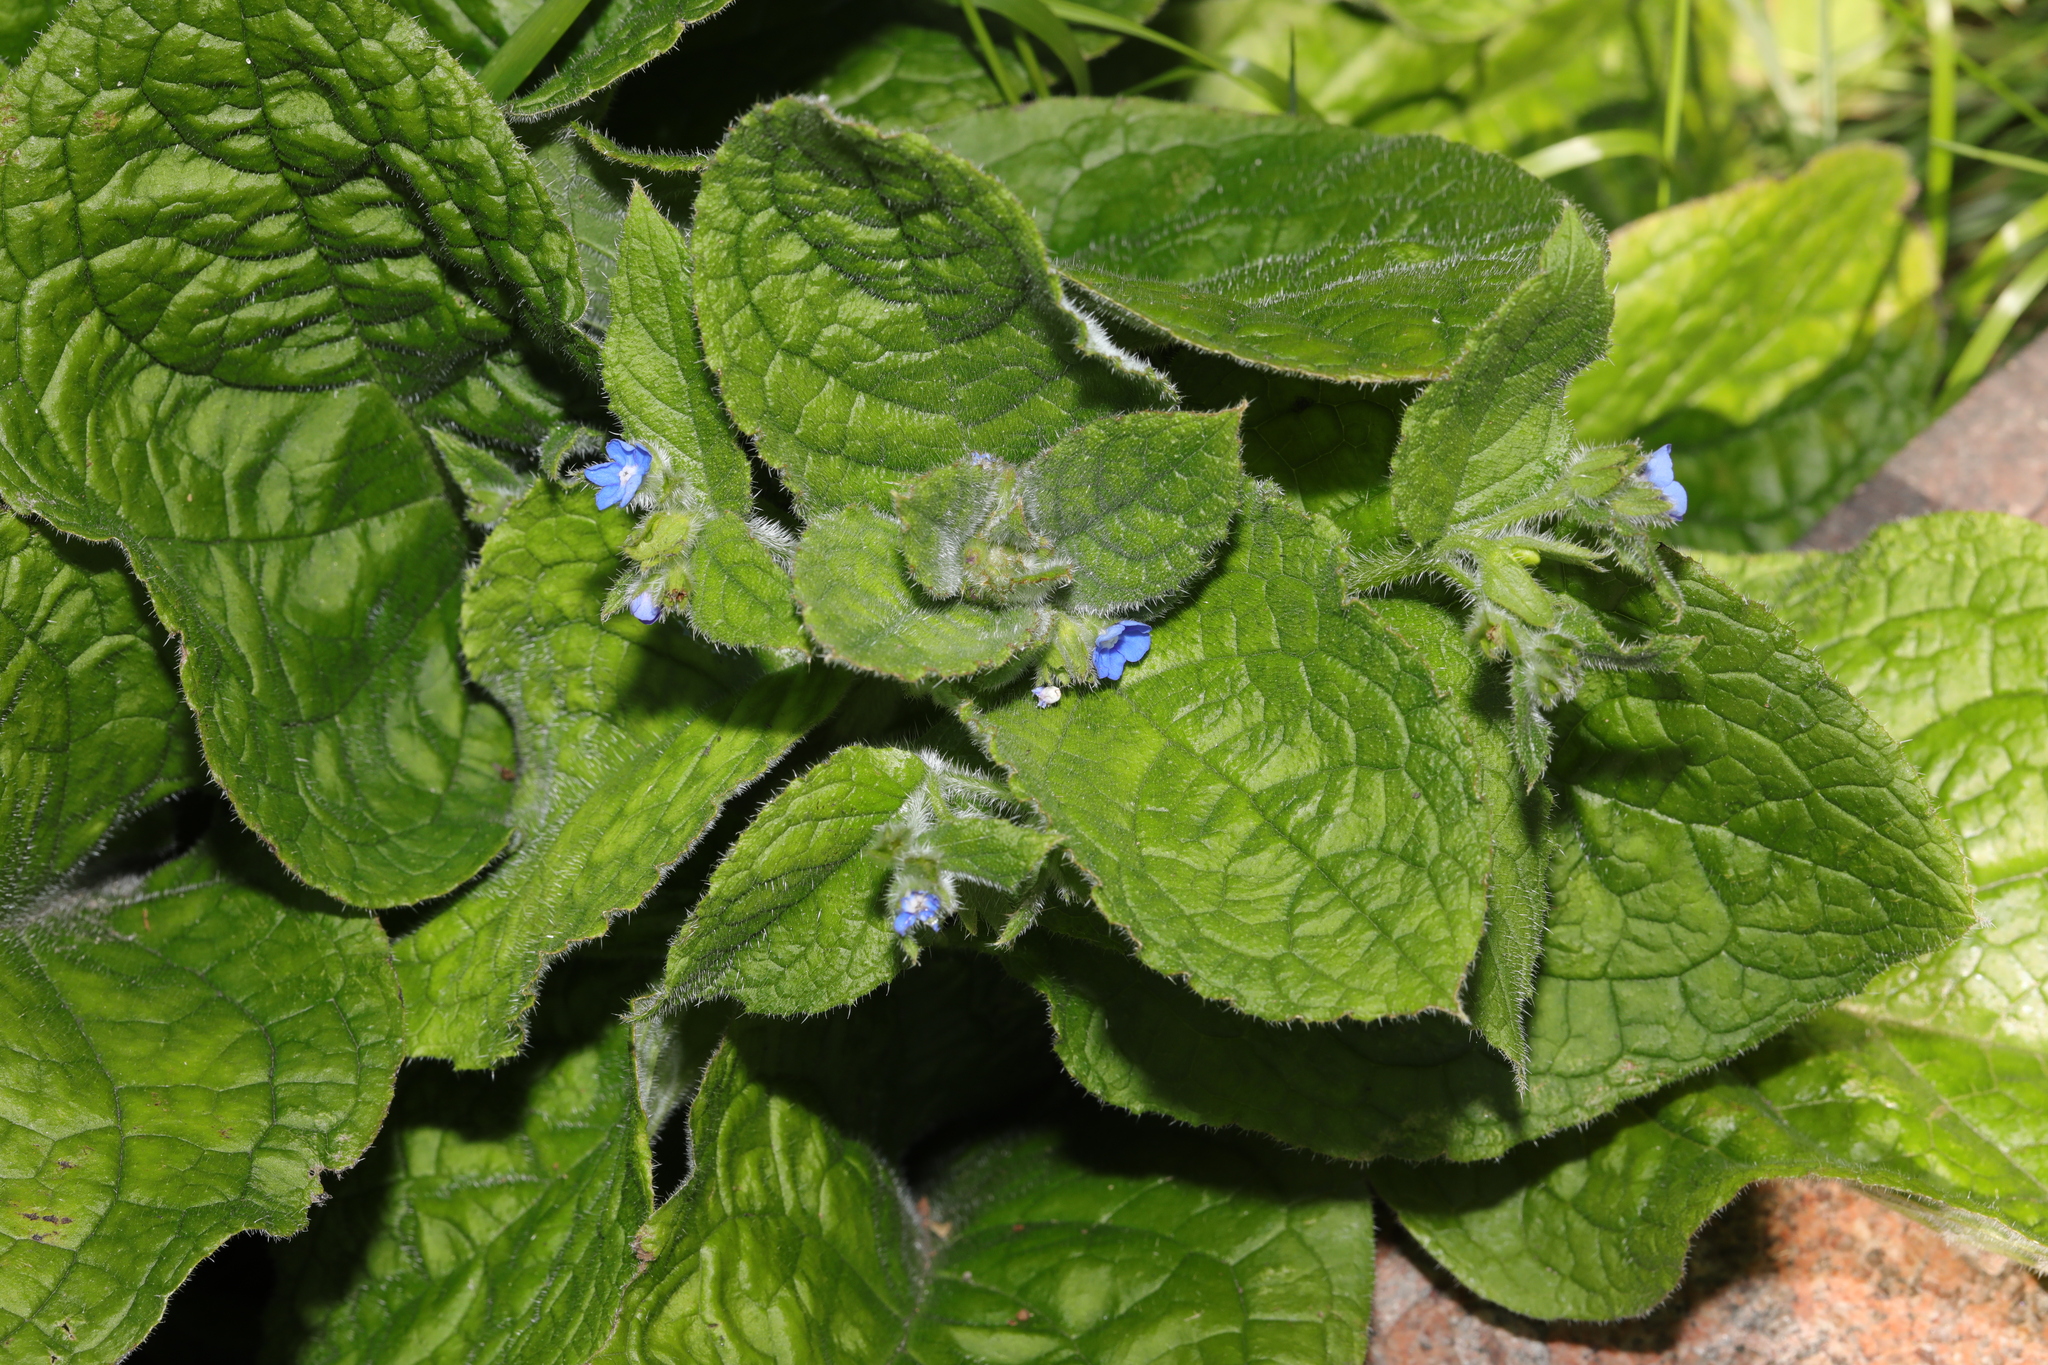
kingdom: Plantae
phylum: Tracheophyta
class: Magnoliopsida
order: Boraginales
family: Boraginaceae
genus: Pentaglottis
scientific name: Pentaglottis sempervirens
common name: Green alkanet
